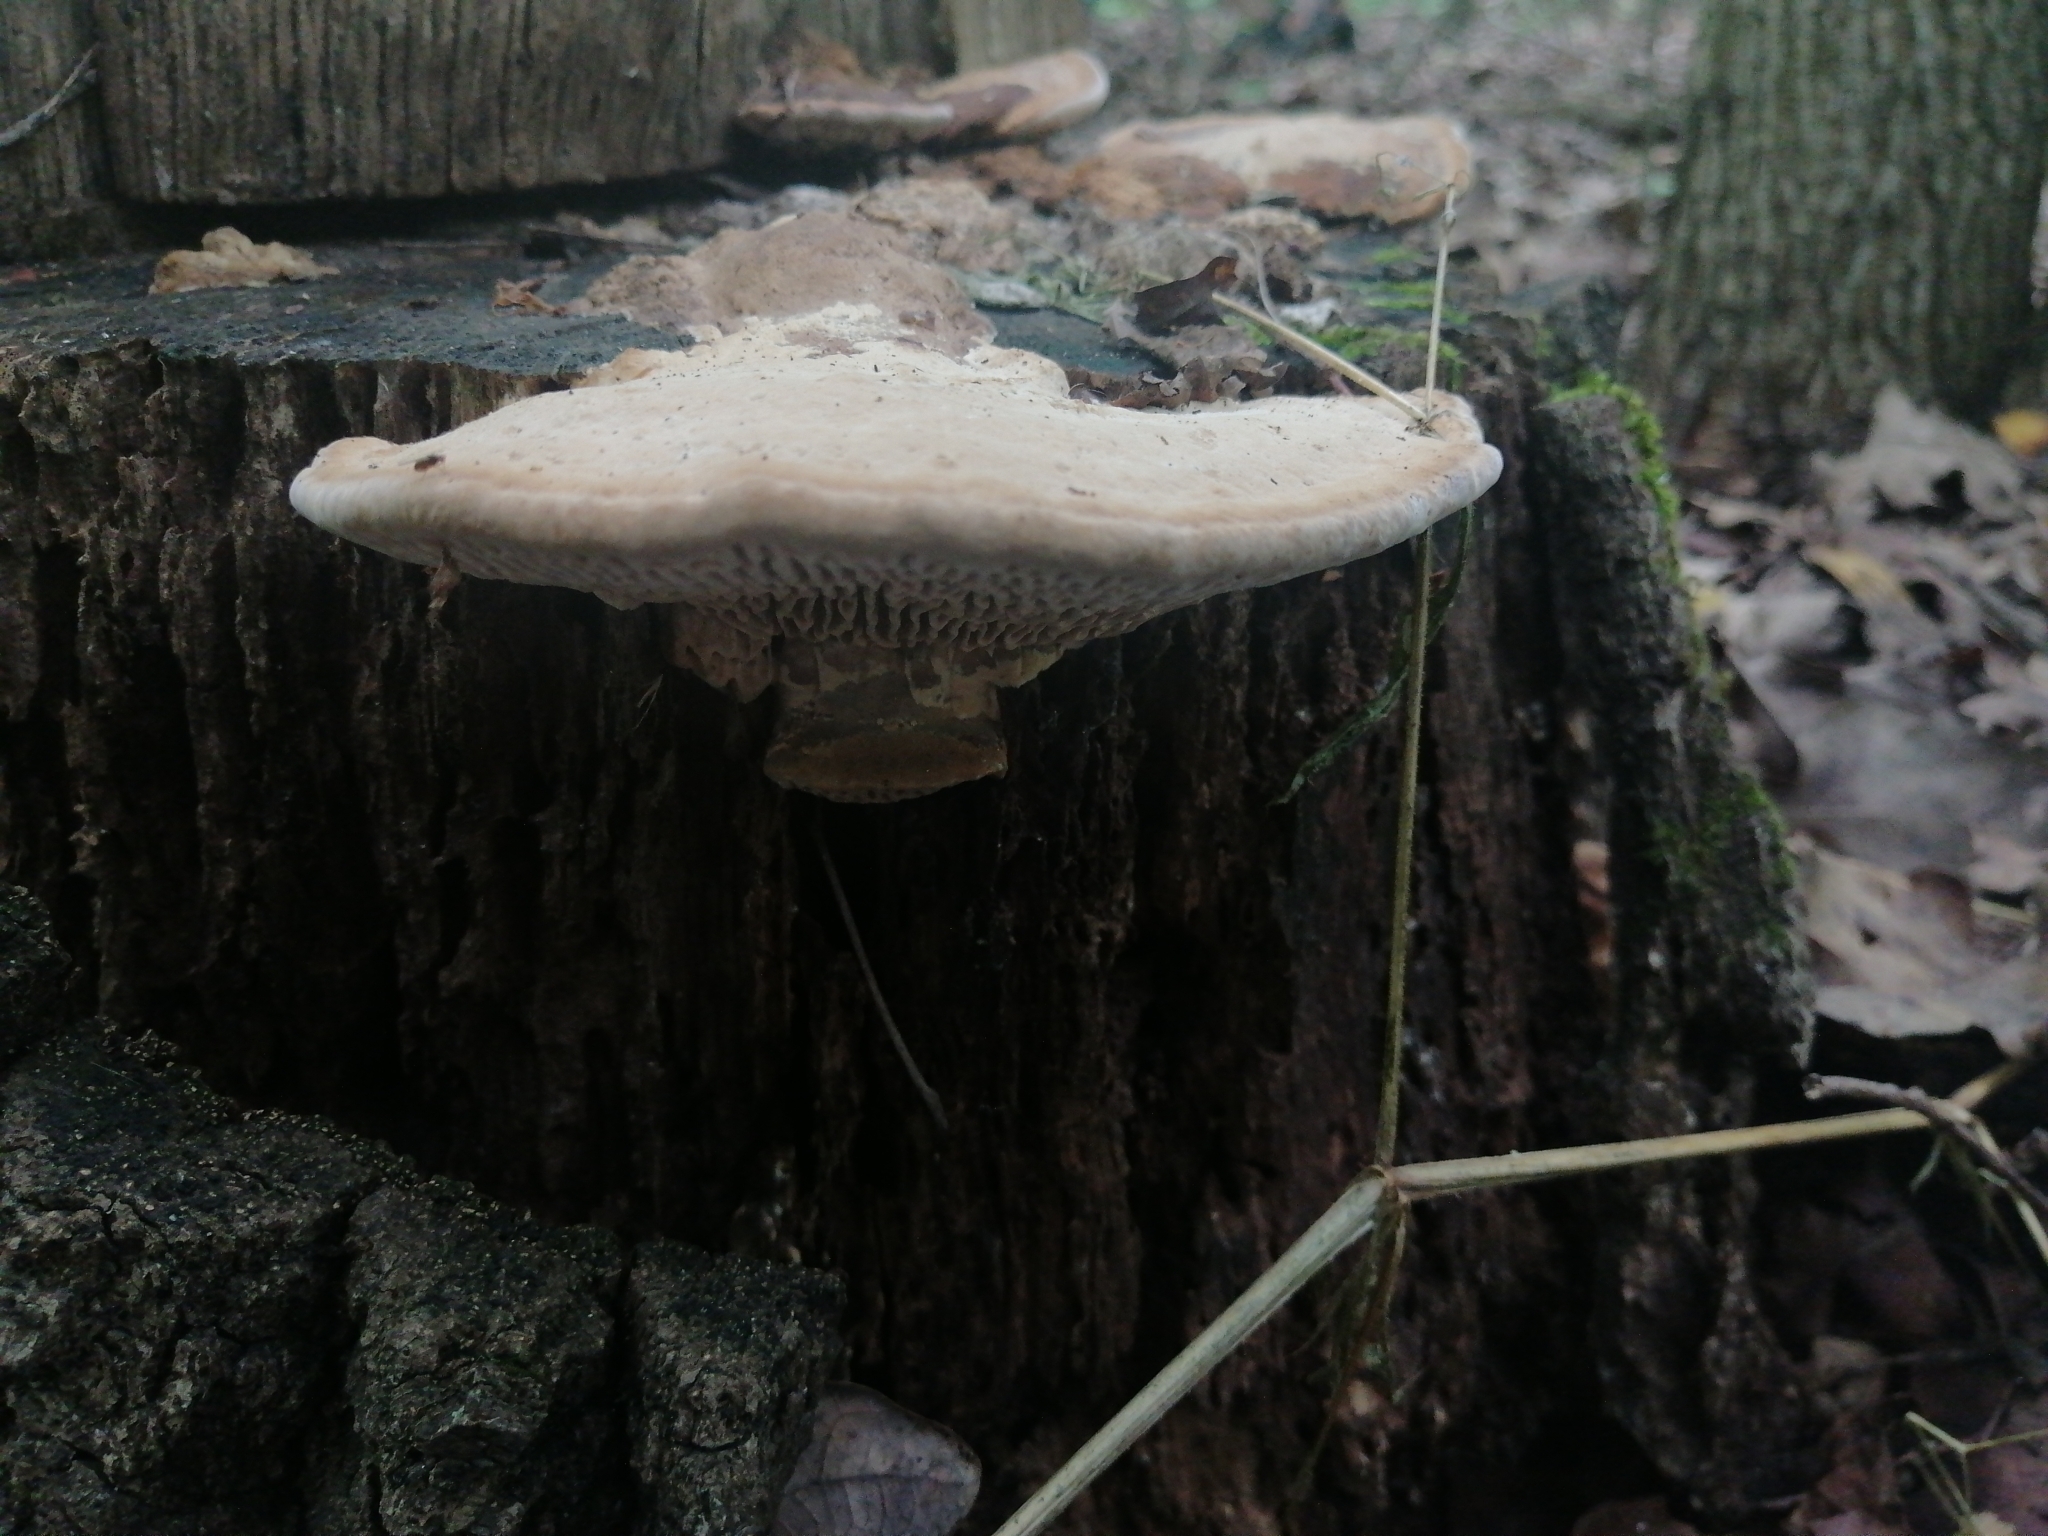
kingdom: Fungi
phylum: Basidiomycota
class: Agaricomycetes
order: Polyporales
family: Fomitopsidaceae
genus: Fomitopsis
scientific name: Fomitopsis
